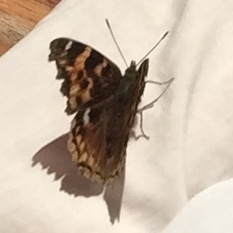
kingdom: Animalia
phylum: Arthropoda
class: Insecta
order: Lepidoptera
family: Nymphalidae
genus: Polygonia
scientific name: Polygonia vaualbum
